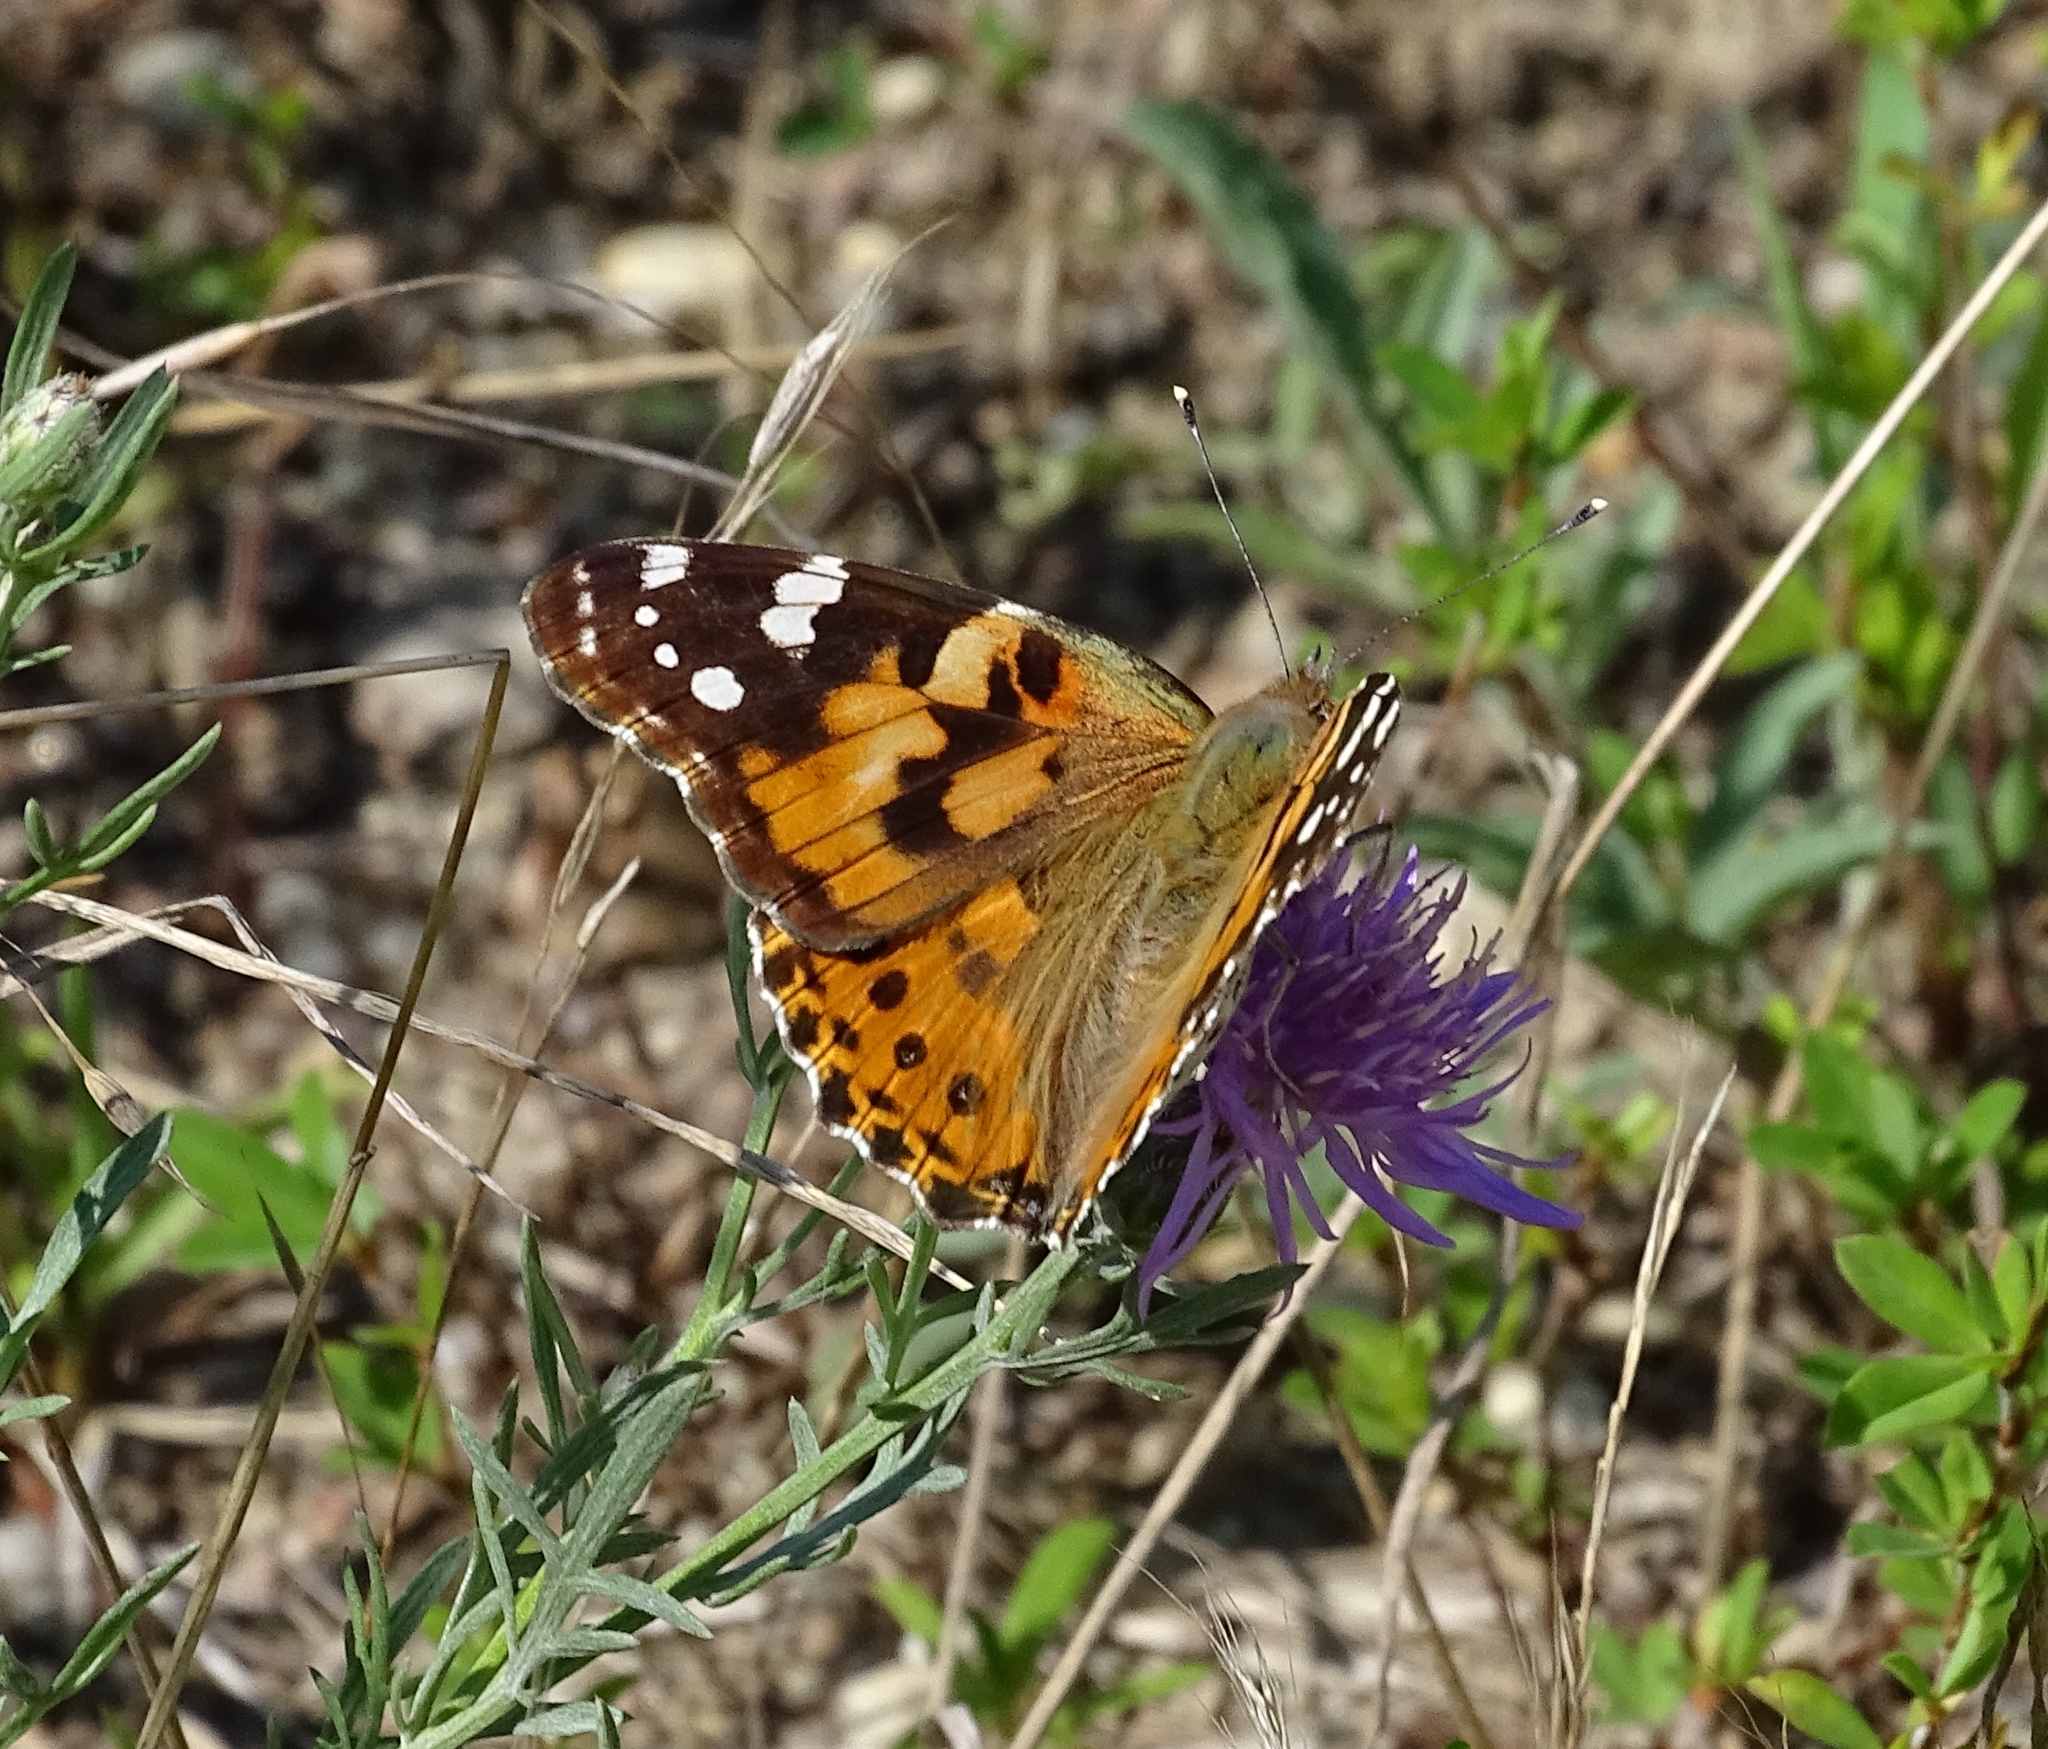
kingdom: Animalia
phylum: Arthropoda
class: Insecta
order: Lepidoptera
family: Nymphalidae
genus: Vanessa
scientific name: Vanessa cardui
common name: Painted lady
